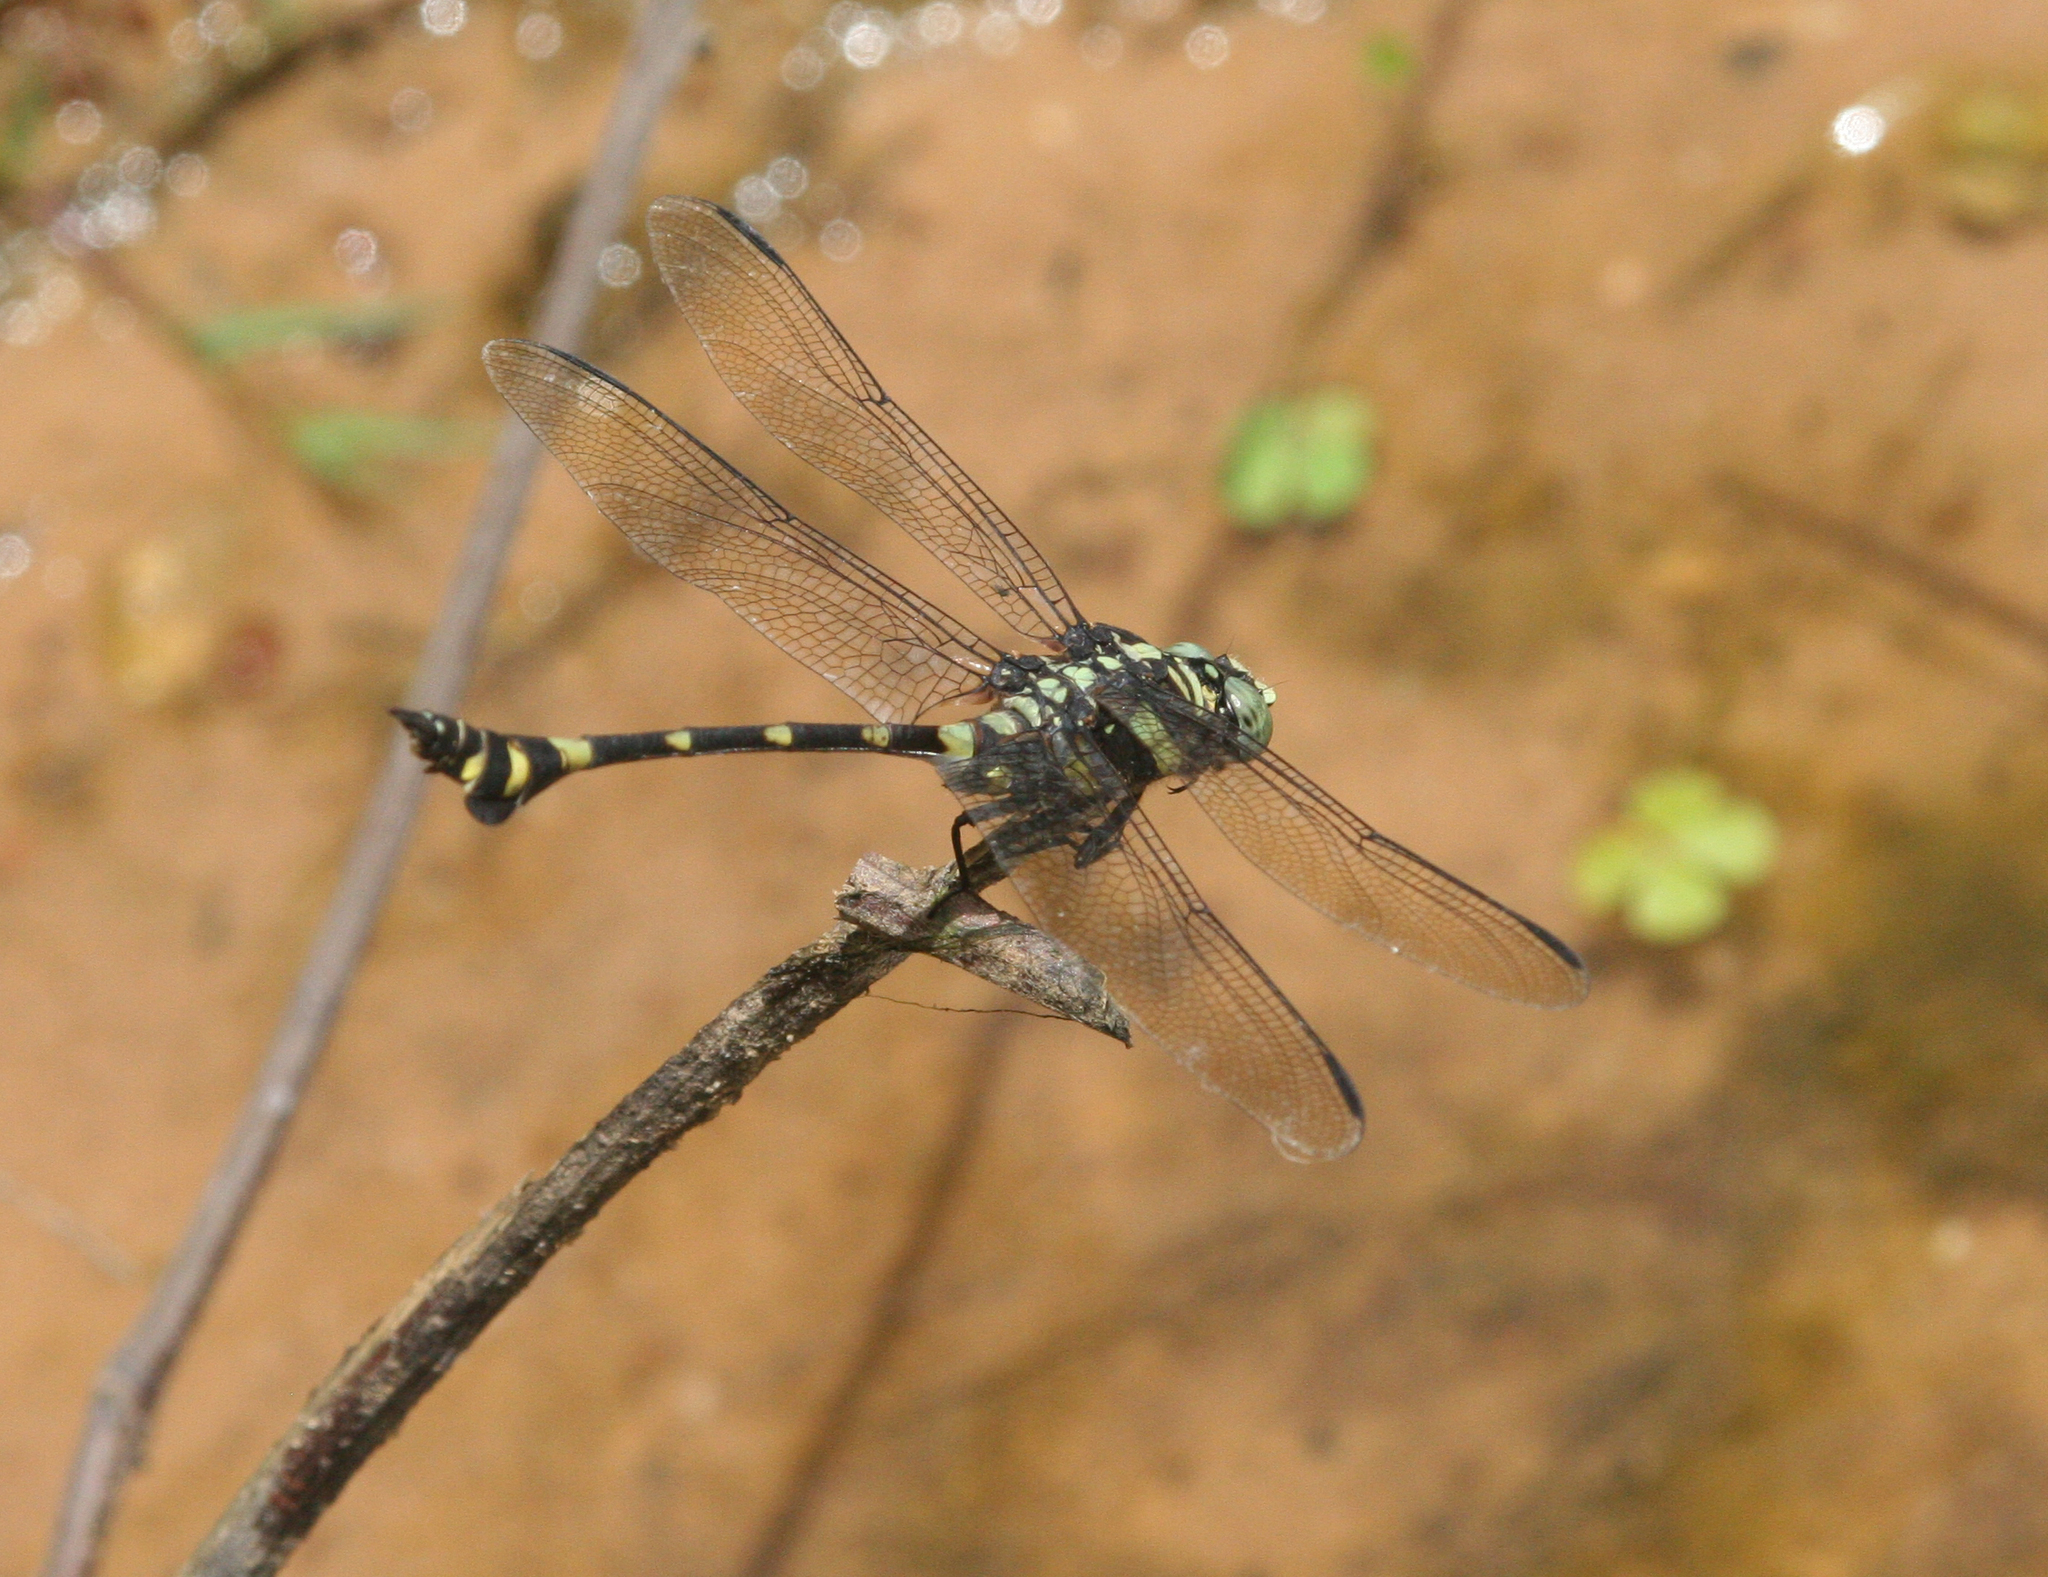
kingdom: Animalia
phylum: Arthropoda
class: Insecta
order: Odonata
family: Gomphidae
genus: Ictinogomphus
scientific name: Ictinogomphus decoratus
